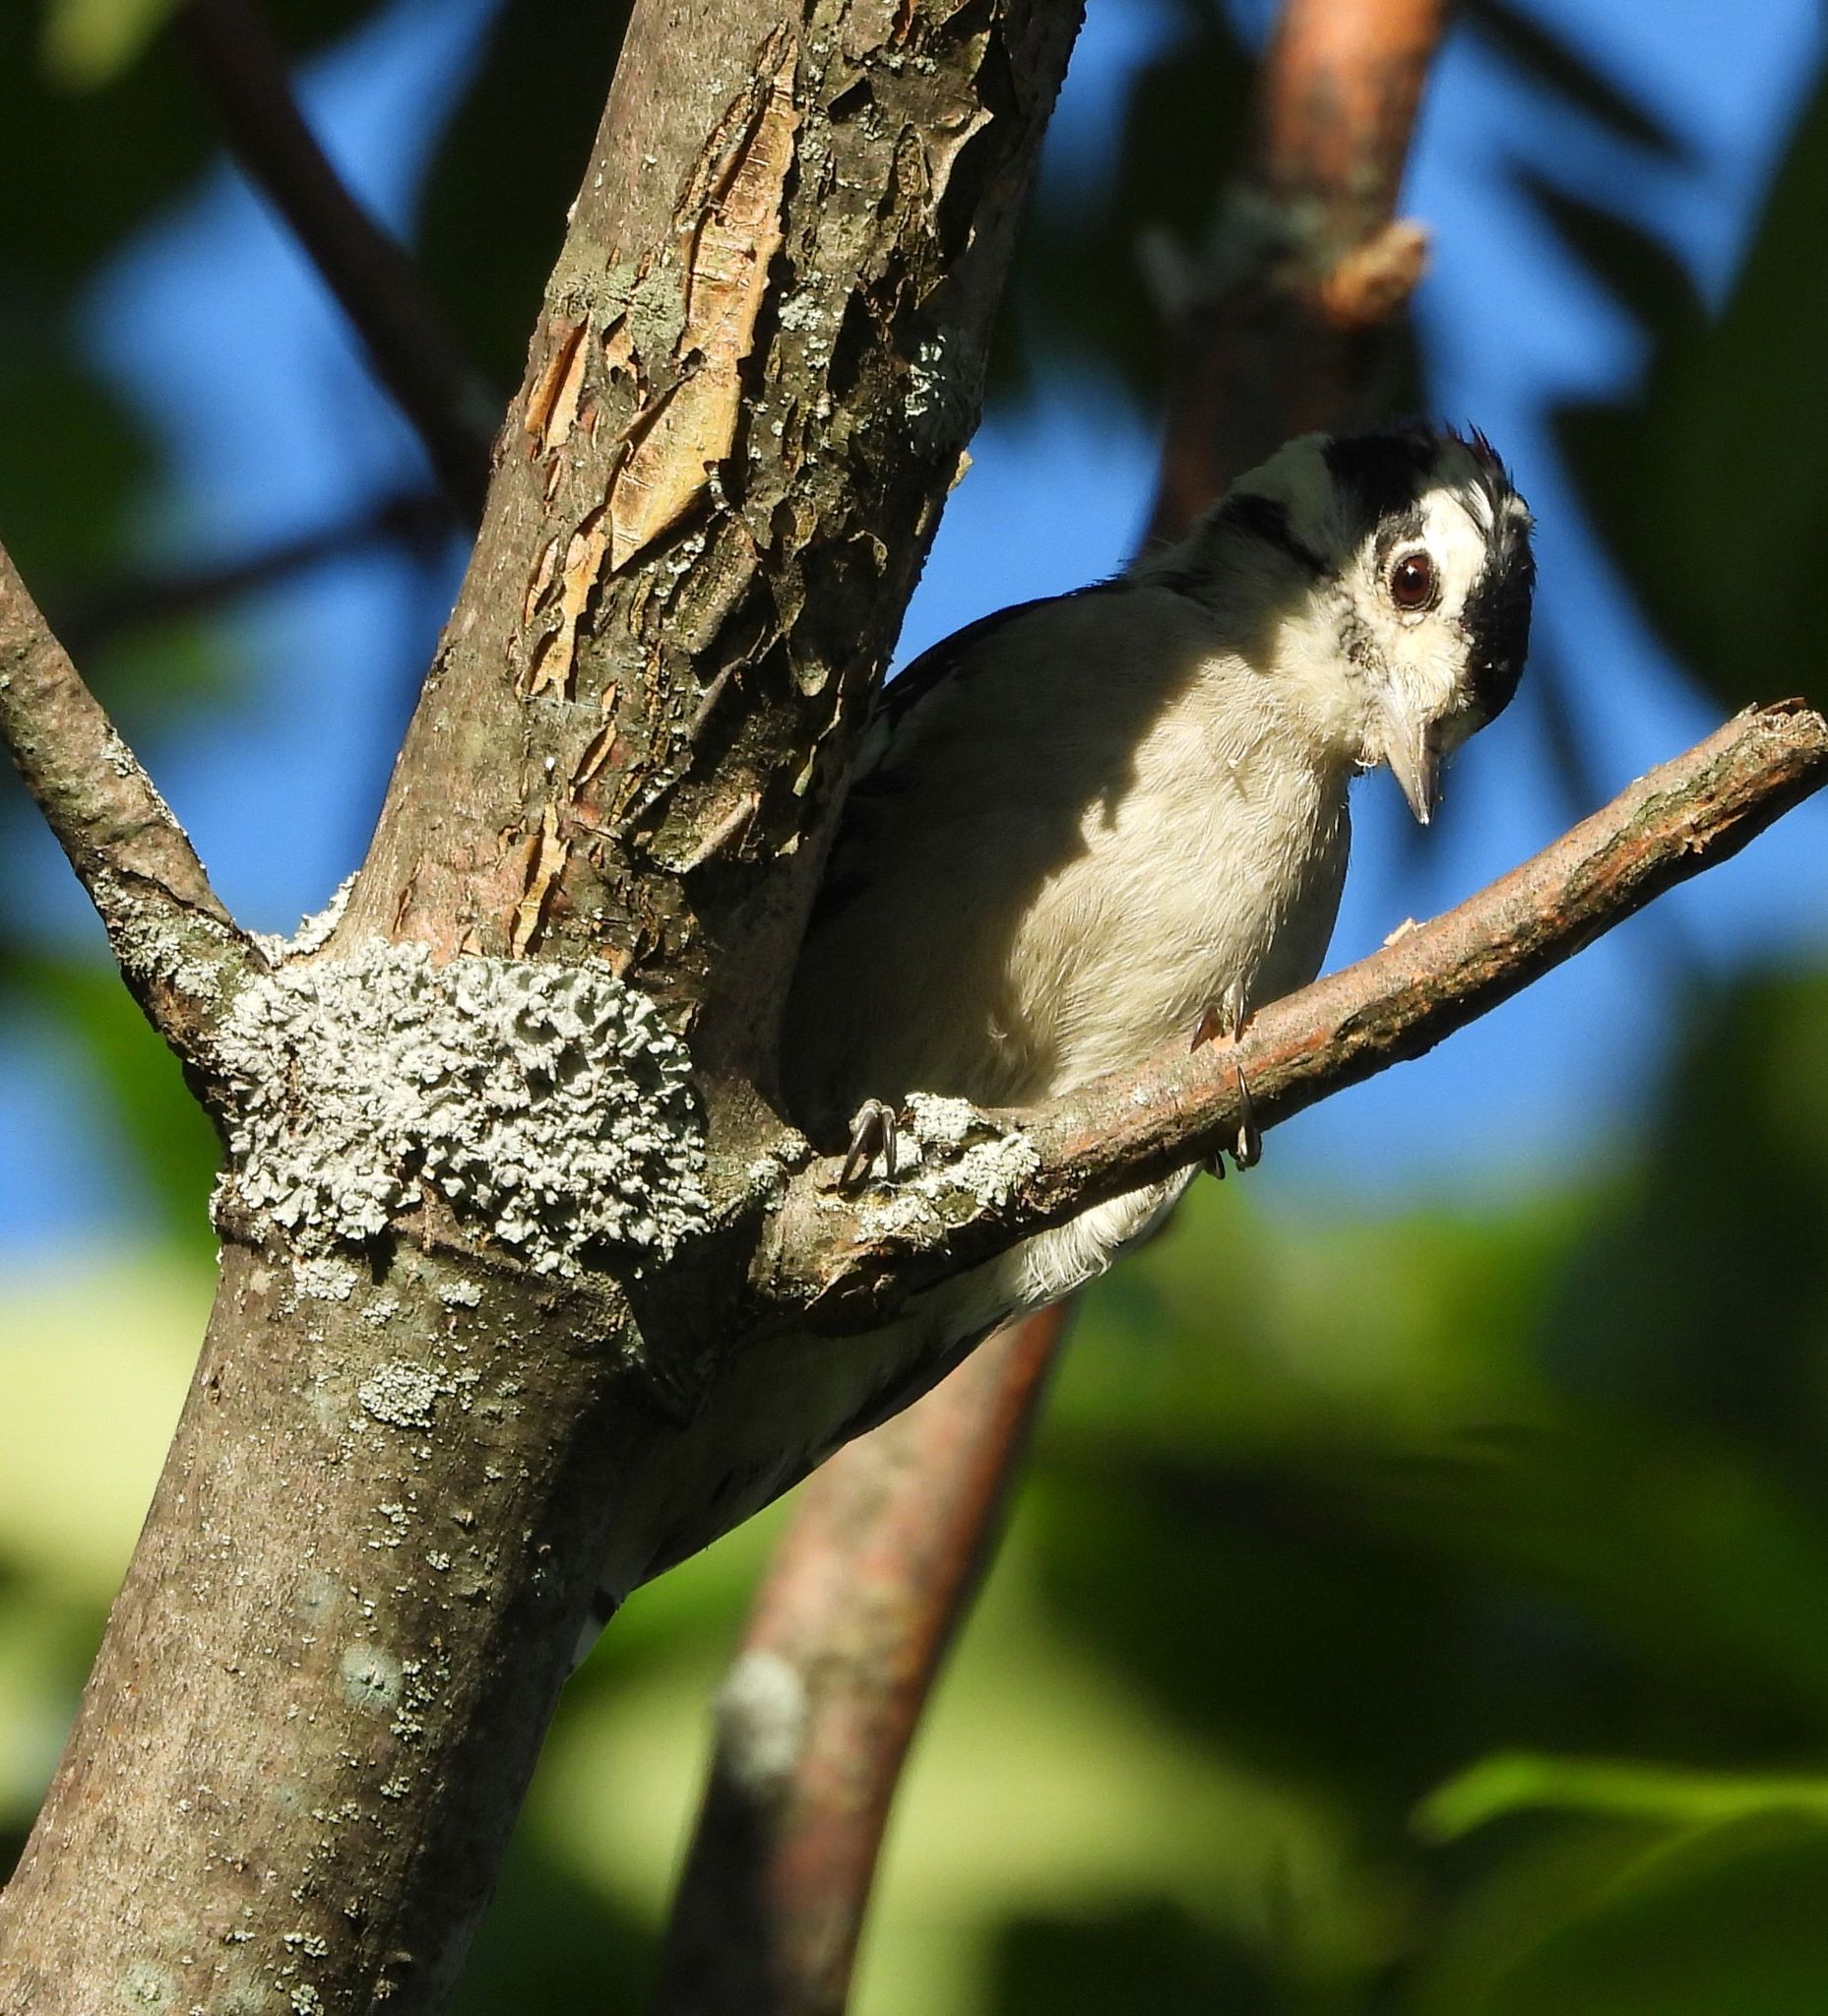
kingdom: Animalia
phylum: Chordata
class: Aves
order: Piciformes
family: Picidae
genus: Dryobates
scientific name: Dryobates pubescens
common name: Downy woodpecker
